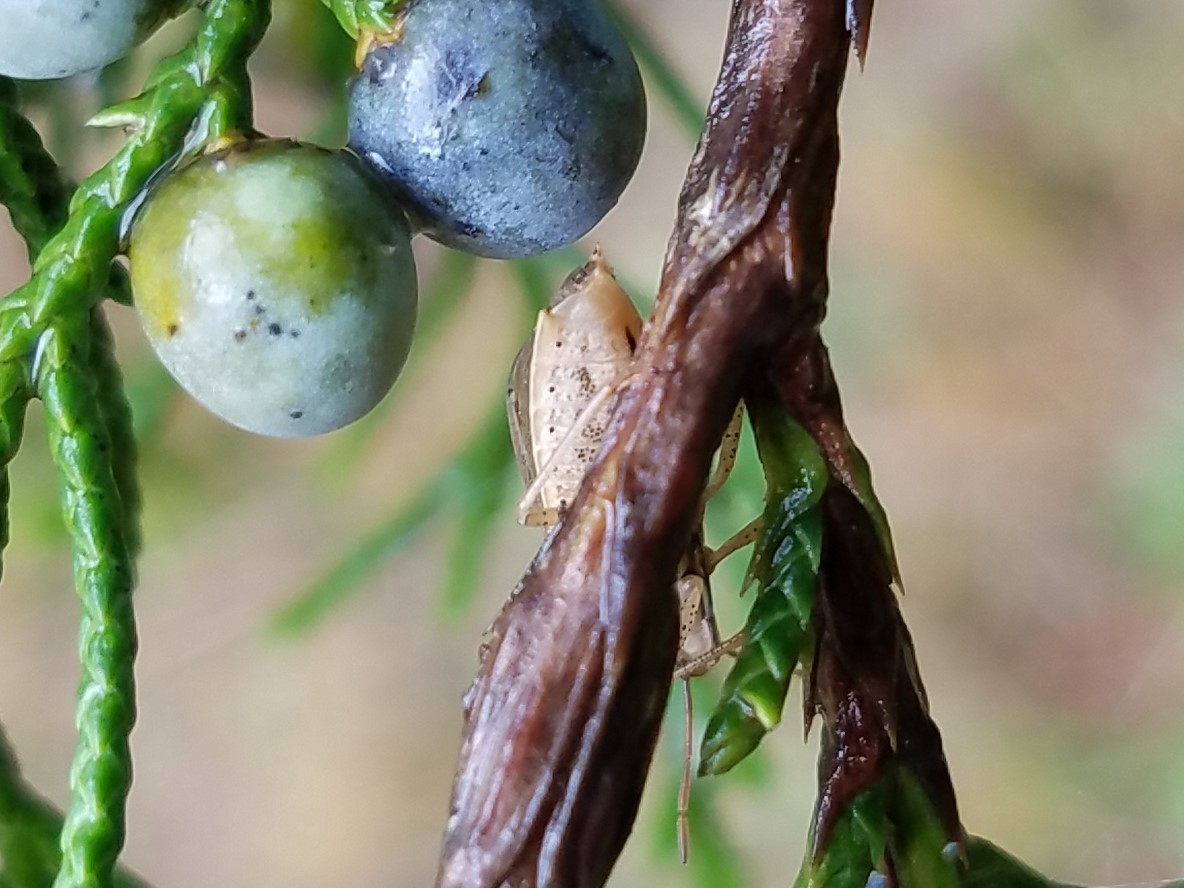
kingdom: Animalia
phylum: Arthropoda
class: Insecta
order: Hemiptera
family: Pentatomidae
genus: Oebalus
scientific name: Oebalus pugnax
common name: Rice stink bug
